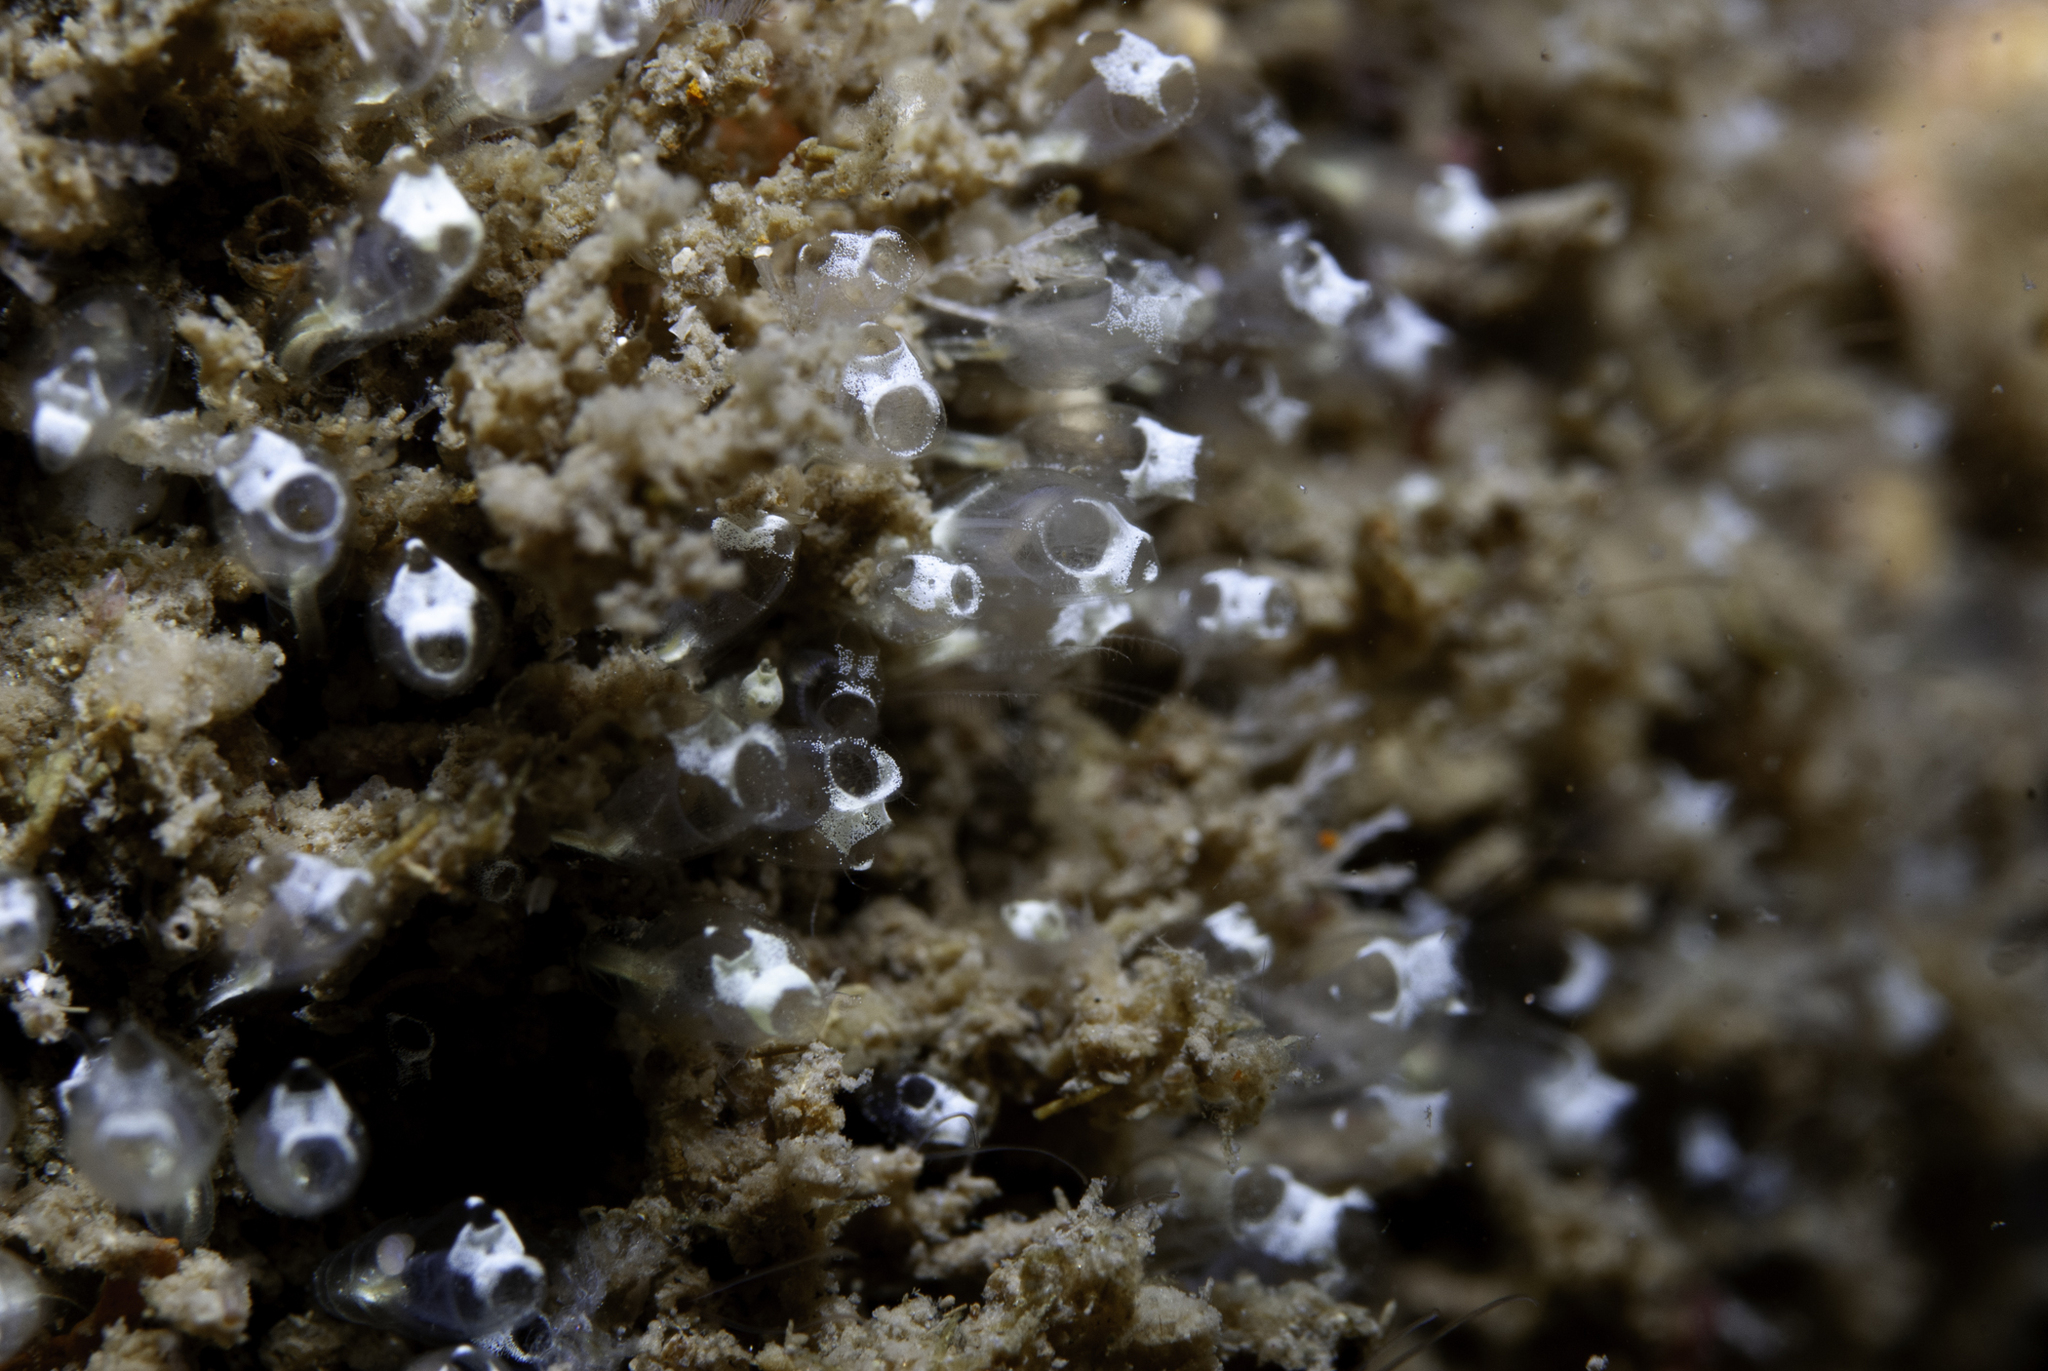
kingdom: Animalia
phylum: Chordata
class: Ascidiacea
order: Aplousobranchia
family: Clavelinidae
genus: Pycnoclavella
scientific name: Pycnoclavella stolonialis
